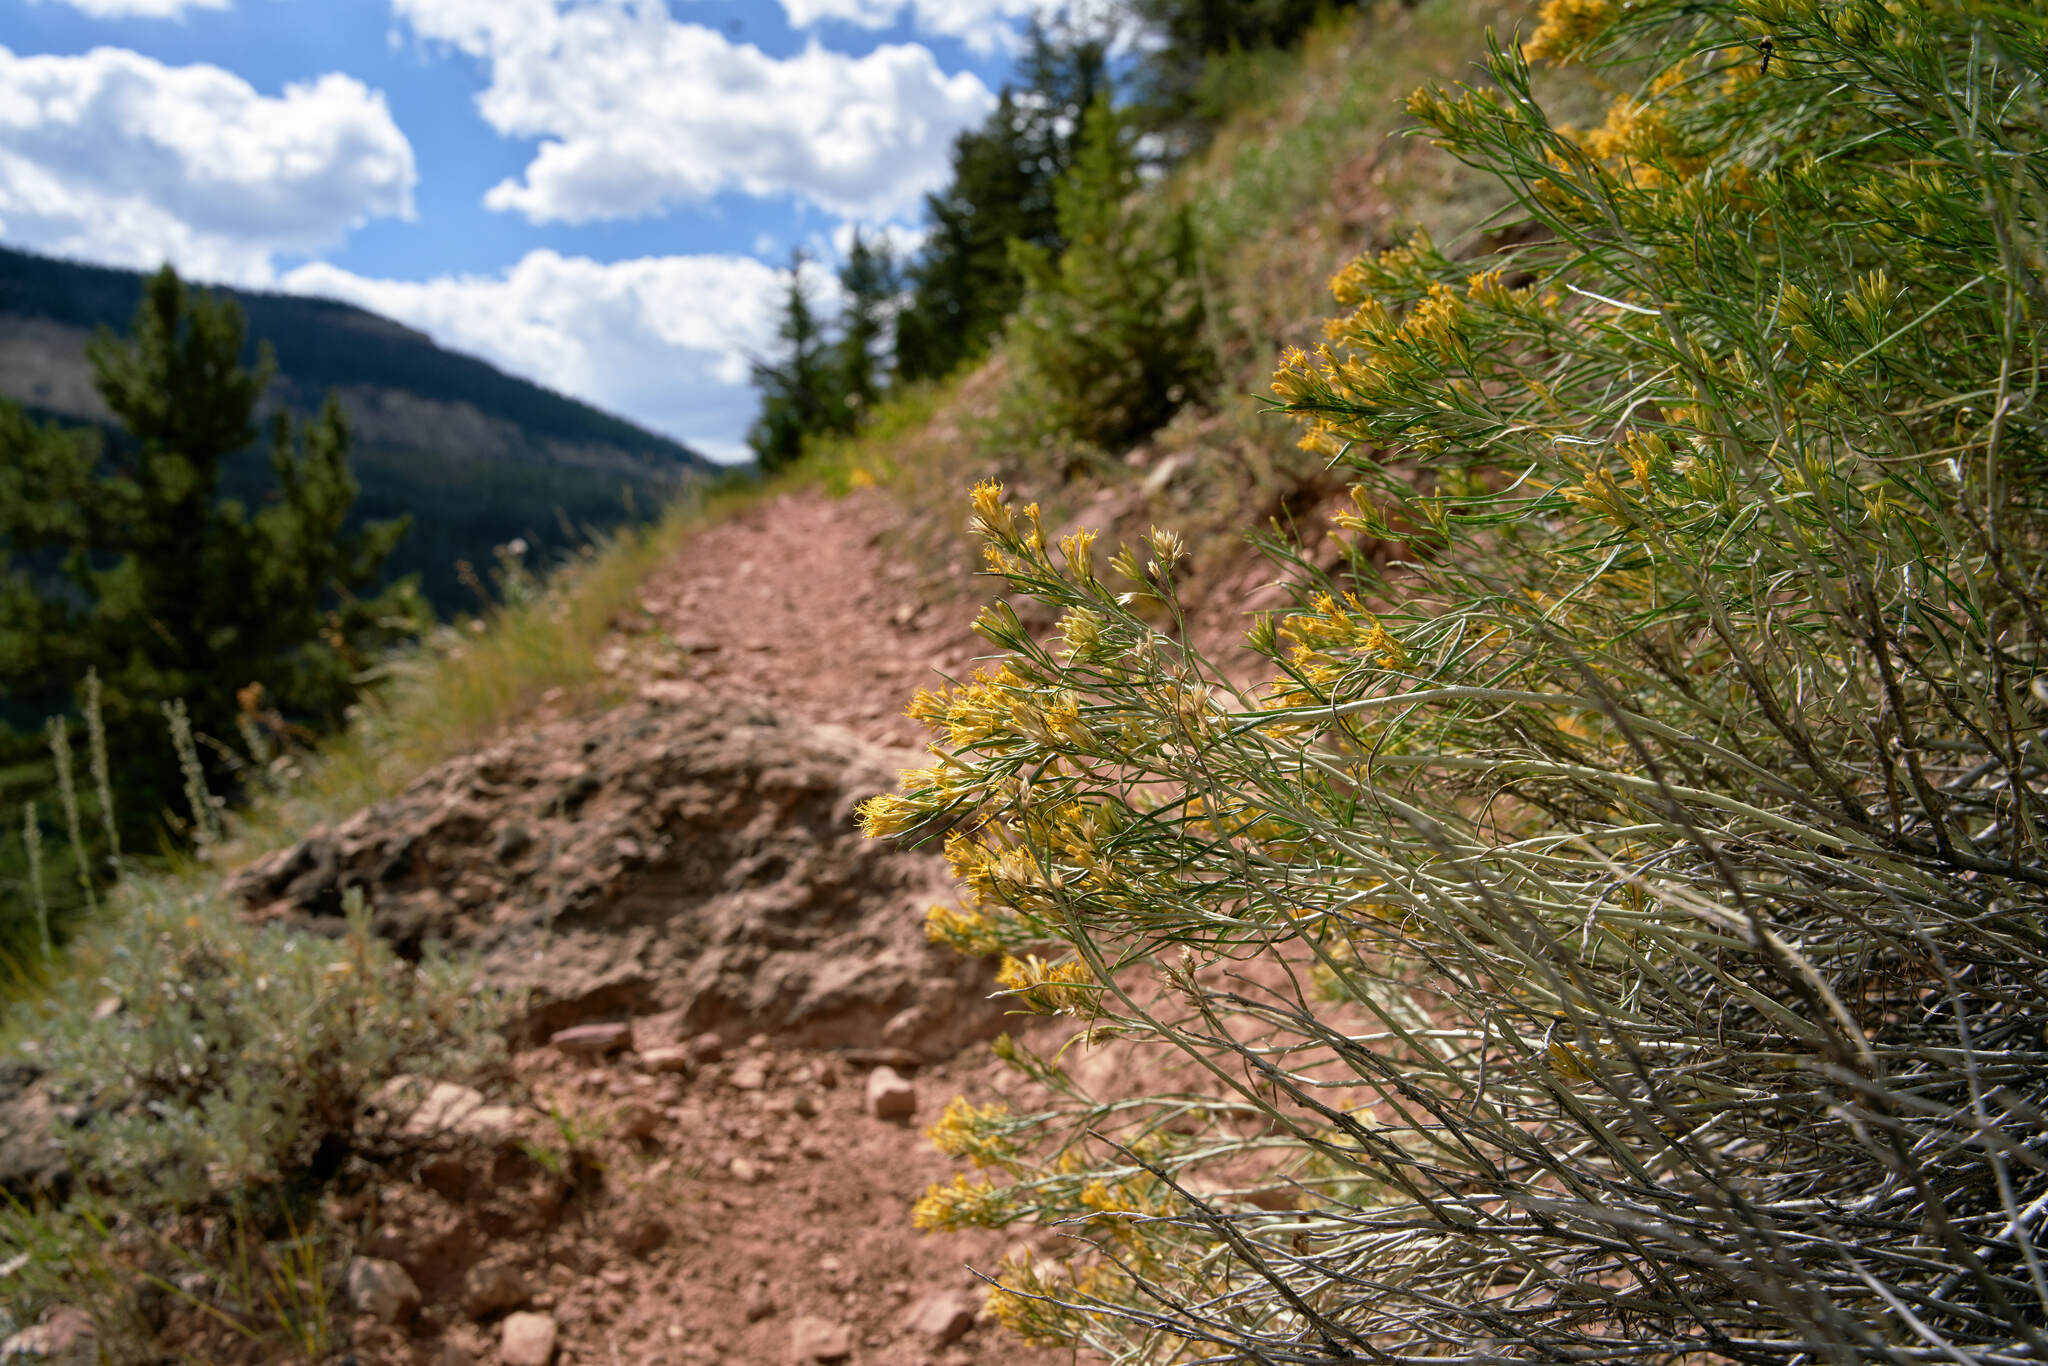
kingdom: Plantae
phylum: Tracheophyta
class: Magnoliopsida
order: Asterales
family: Asteraceae
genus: Ericameria
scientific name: Ericameria nauseosa
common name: Rubber rabbitbrush
